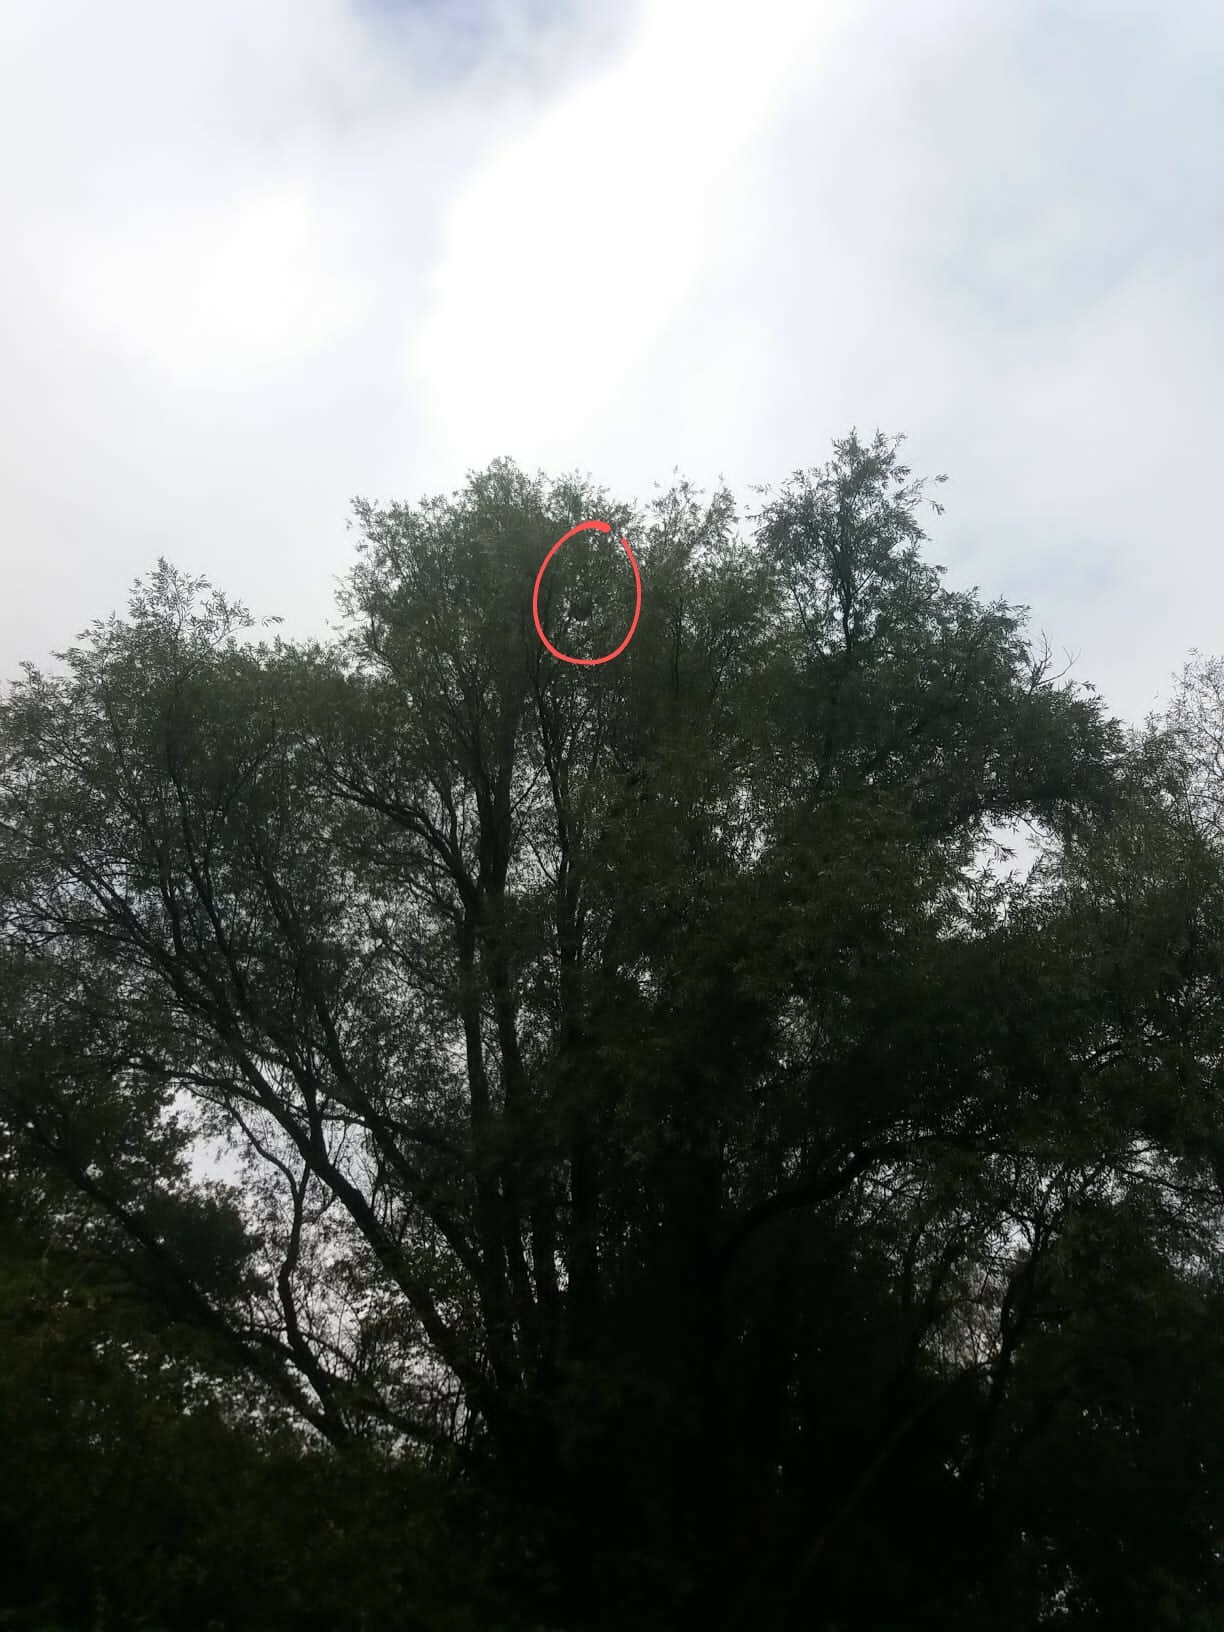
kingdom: Animalia
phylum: Arthropoda
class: Insecta
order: Hymenoptera
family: Vespidae
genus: Vespa
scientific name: Vespa velutina
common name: Asian hornet
